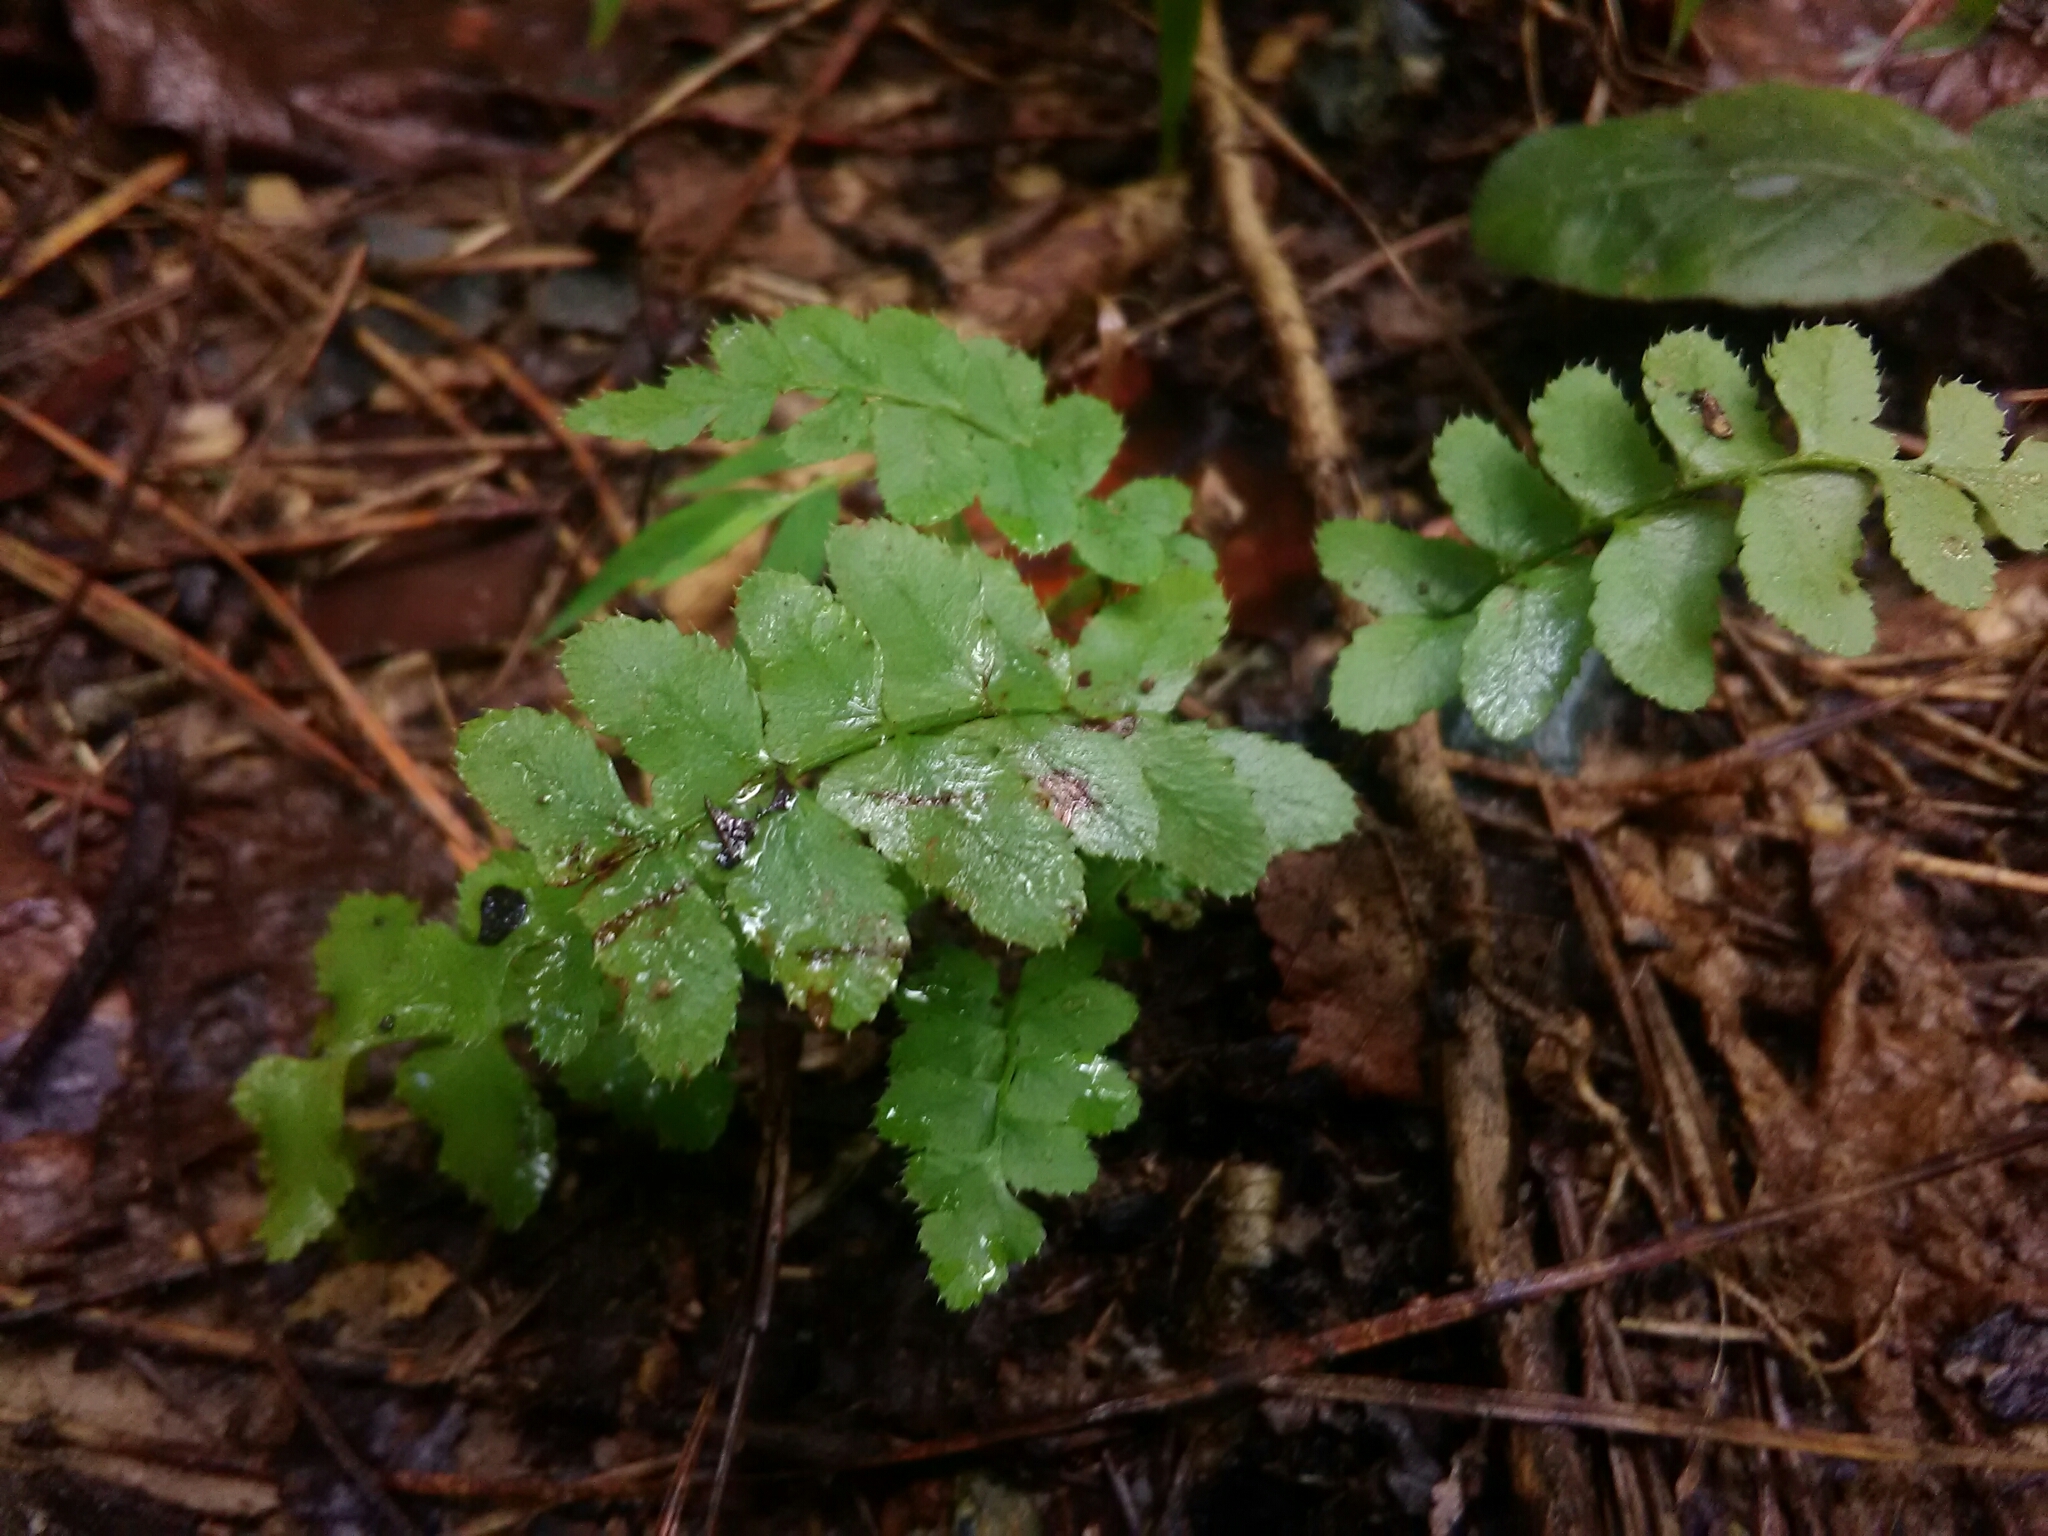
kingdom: Plantae
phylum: Tracheophyta
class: Polypodiopsida
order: Polypodiales
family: Dryopteridaceae
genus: Polystichum
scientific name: Polystichum acrostichoides
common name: Christmas fern
